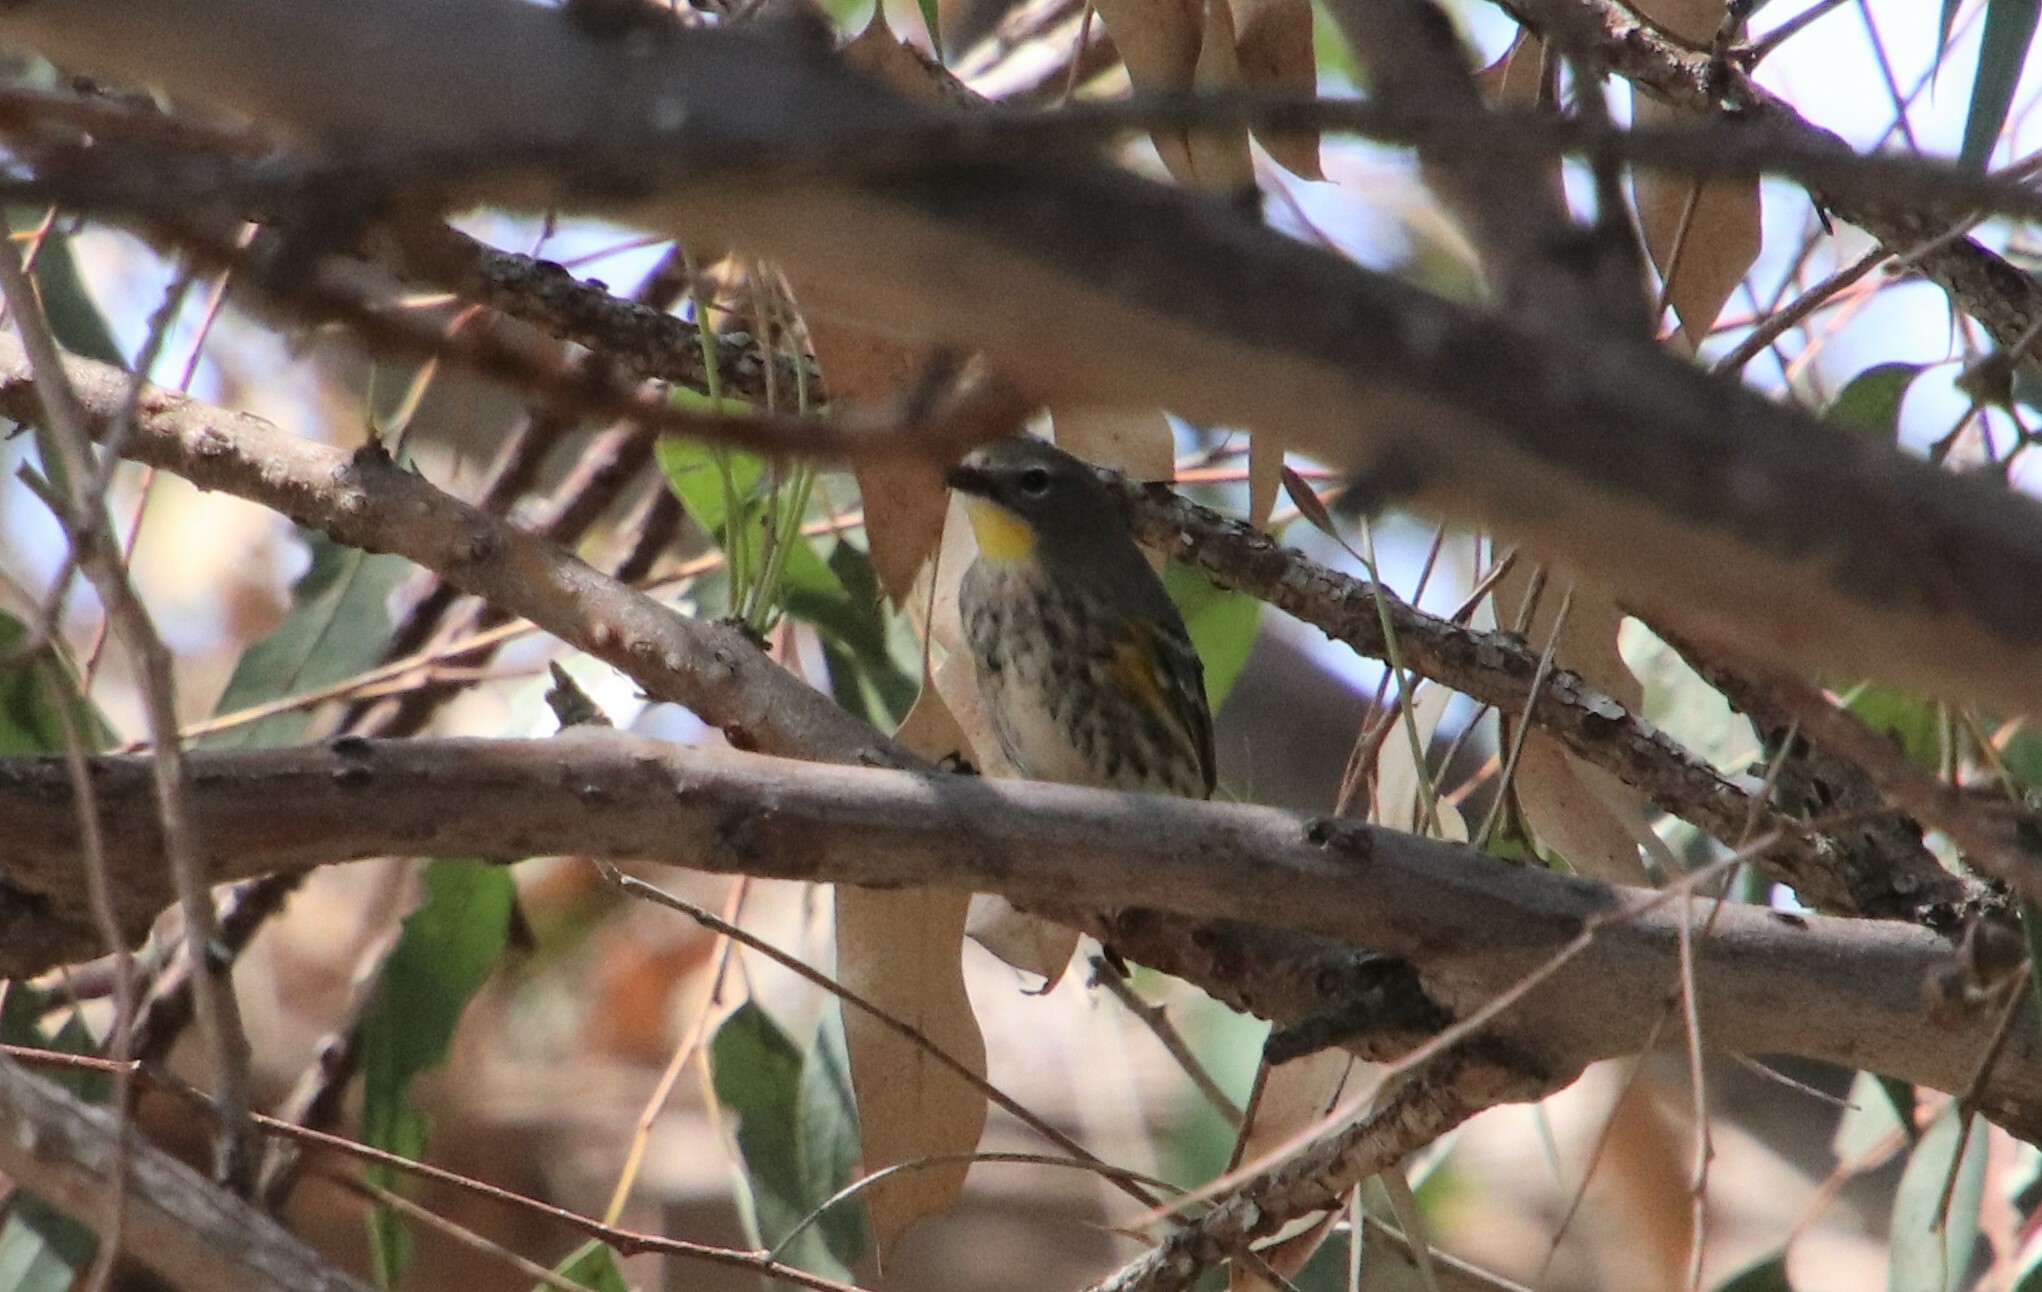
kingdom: Animalia
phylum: Chordata
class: Aves
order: Passeriformes
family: Parulidae
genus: Setophaga
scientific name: Setophaga auduboni
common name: Audubon's warbler
